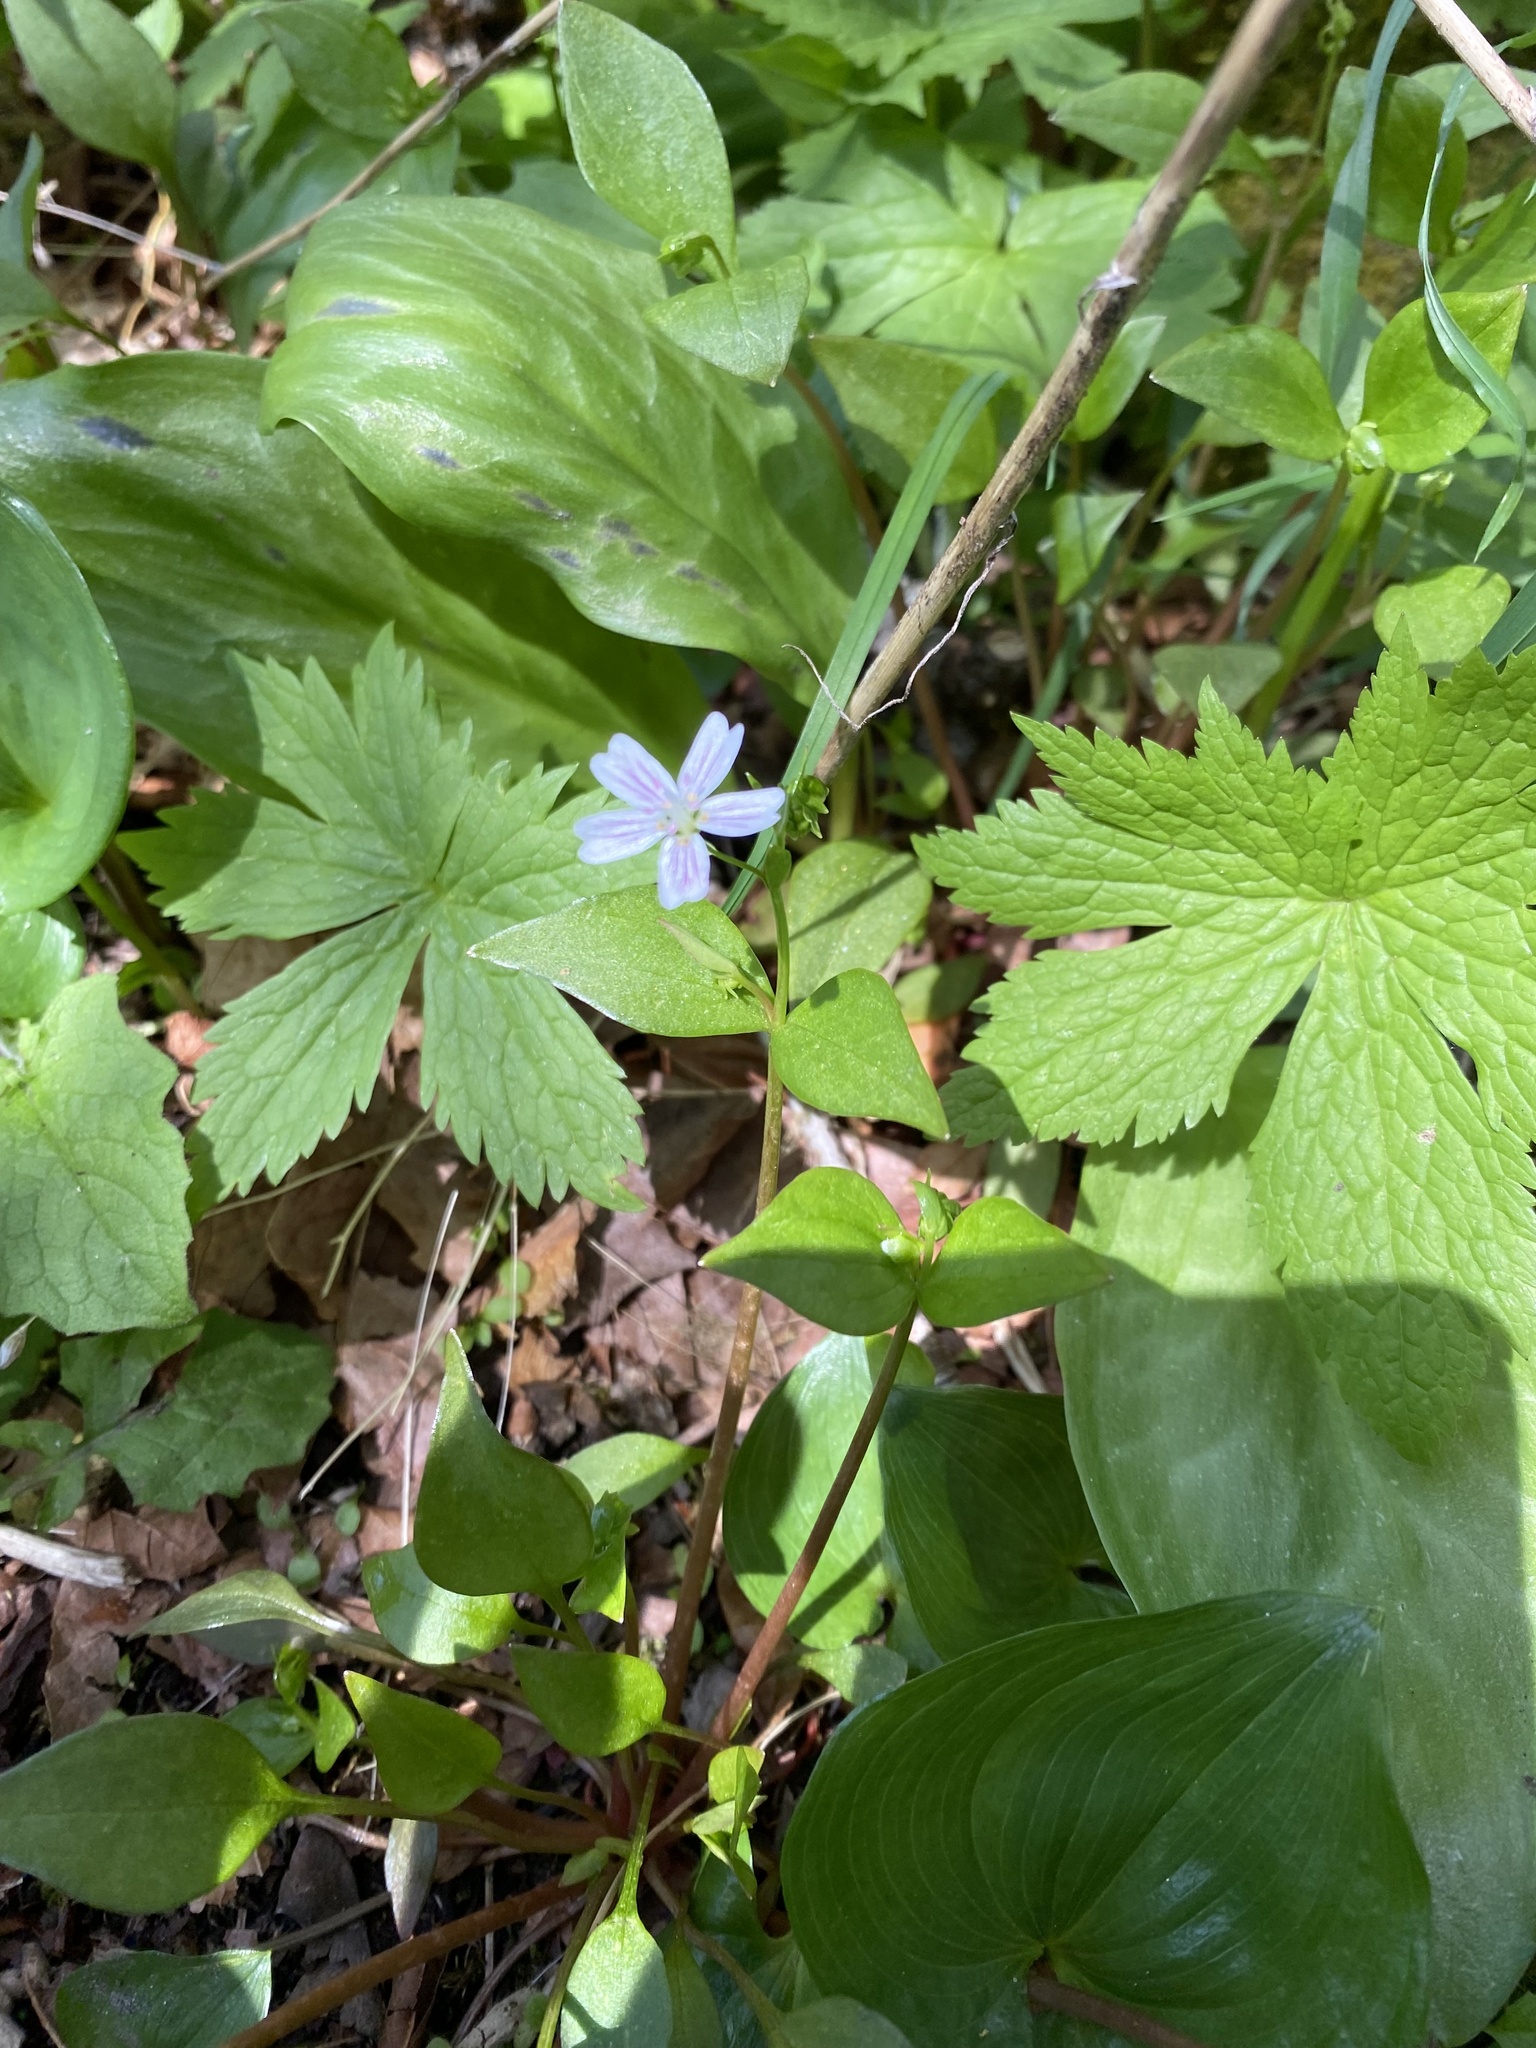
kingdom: Plantae
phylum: Tracheophyta
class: Magnoliopsida
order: Caryophyllales
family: Montiaceae
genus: Claytonia
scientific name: Claytonia sibirica
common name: Pink purslane
